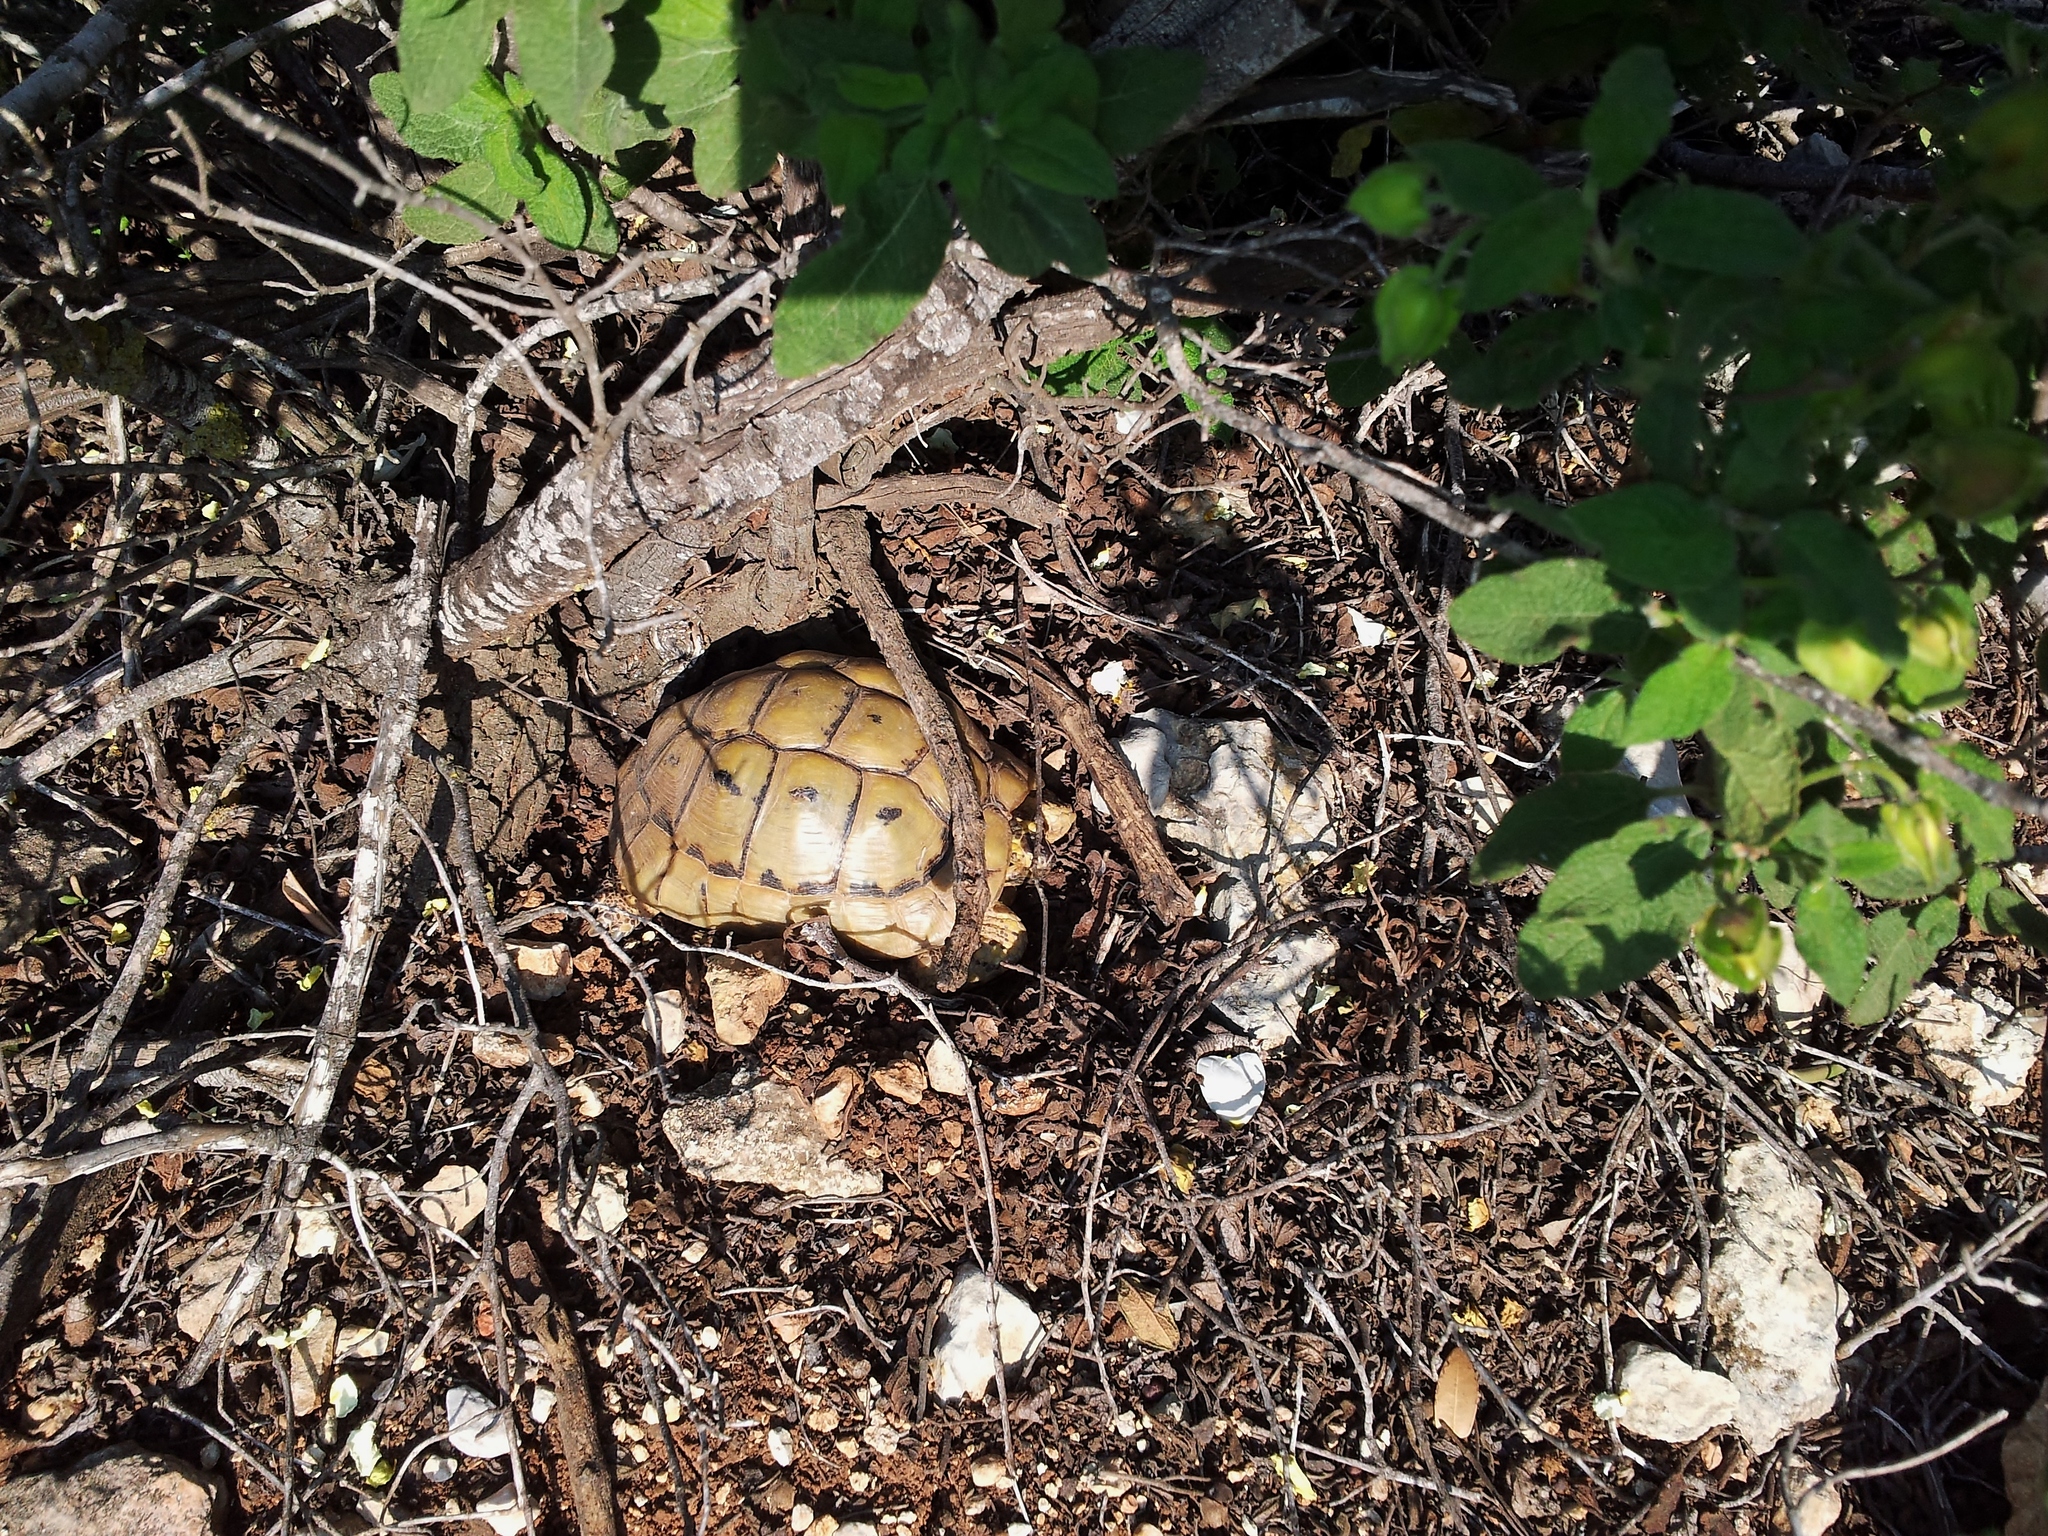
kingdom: Animalia
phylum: Chordata
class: Testudines
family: Testudinidae
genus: Testudo
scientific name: Testudo graeca
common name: Common tortoise
